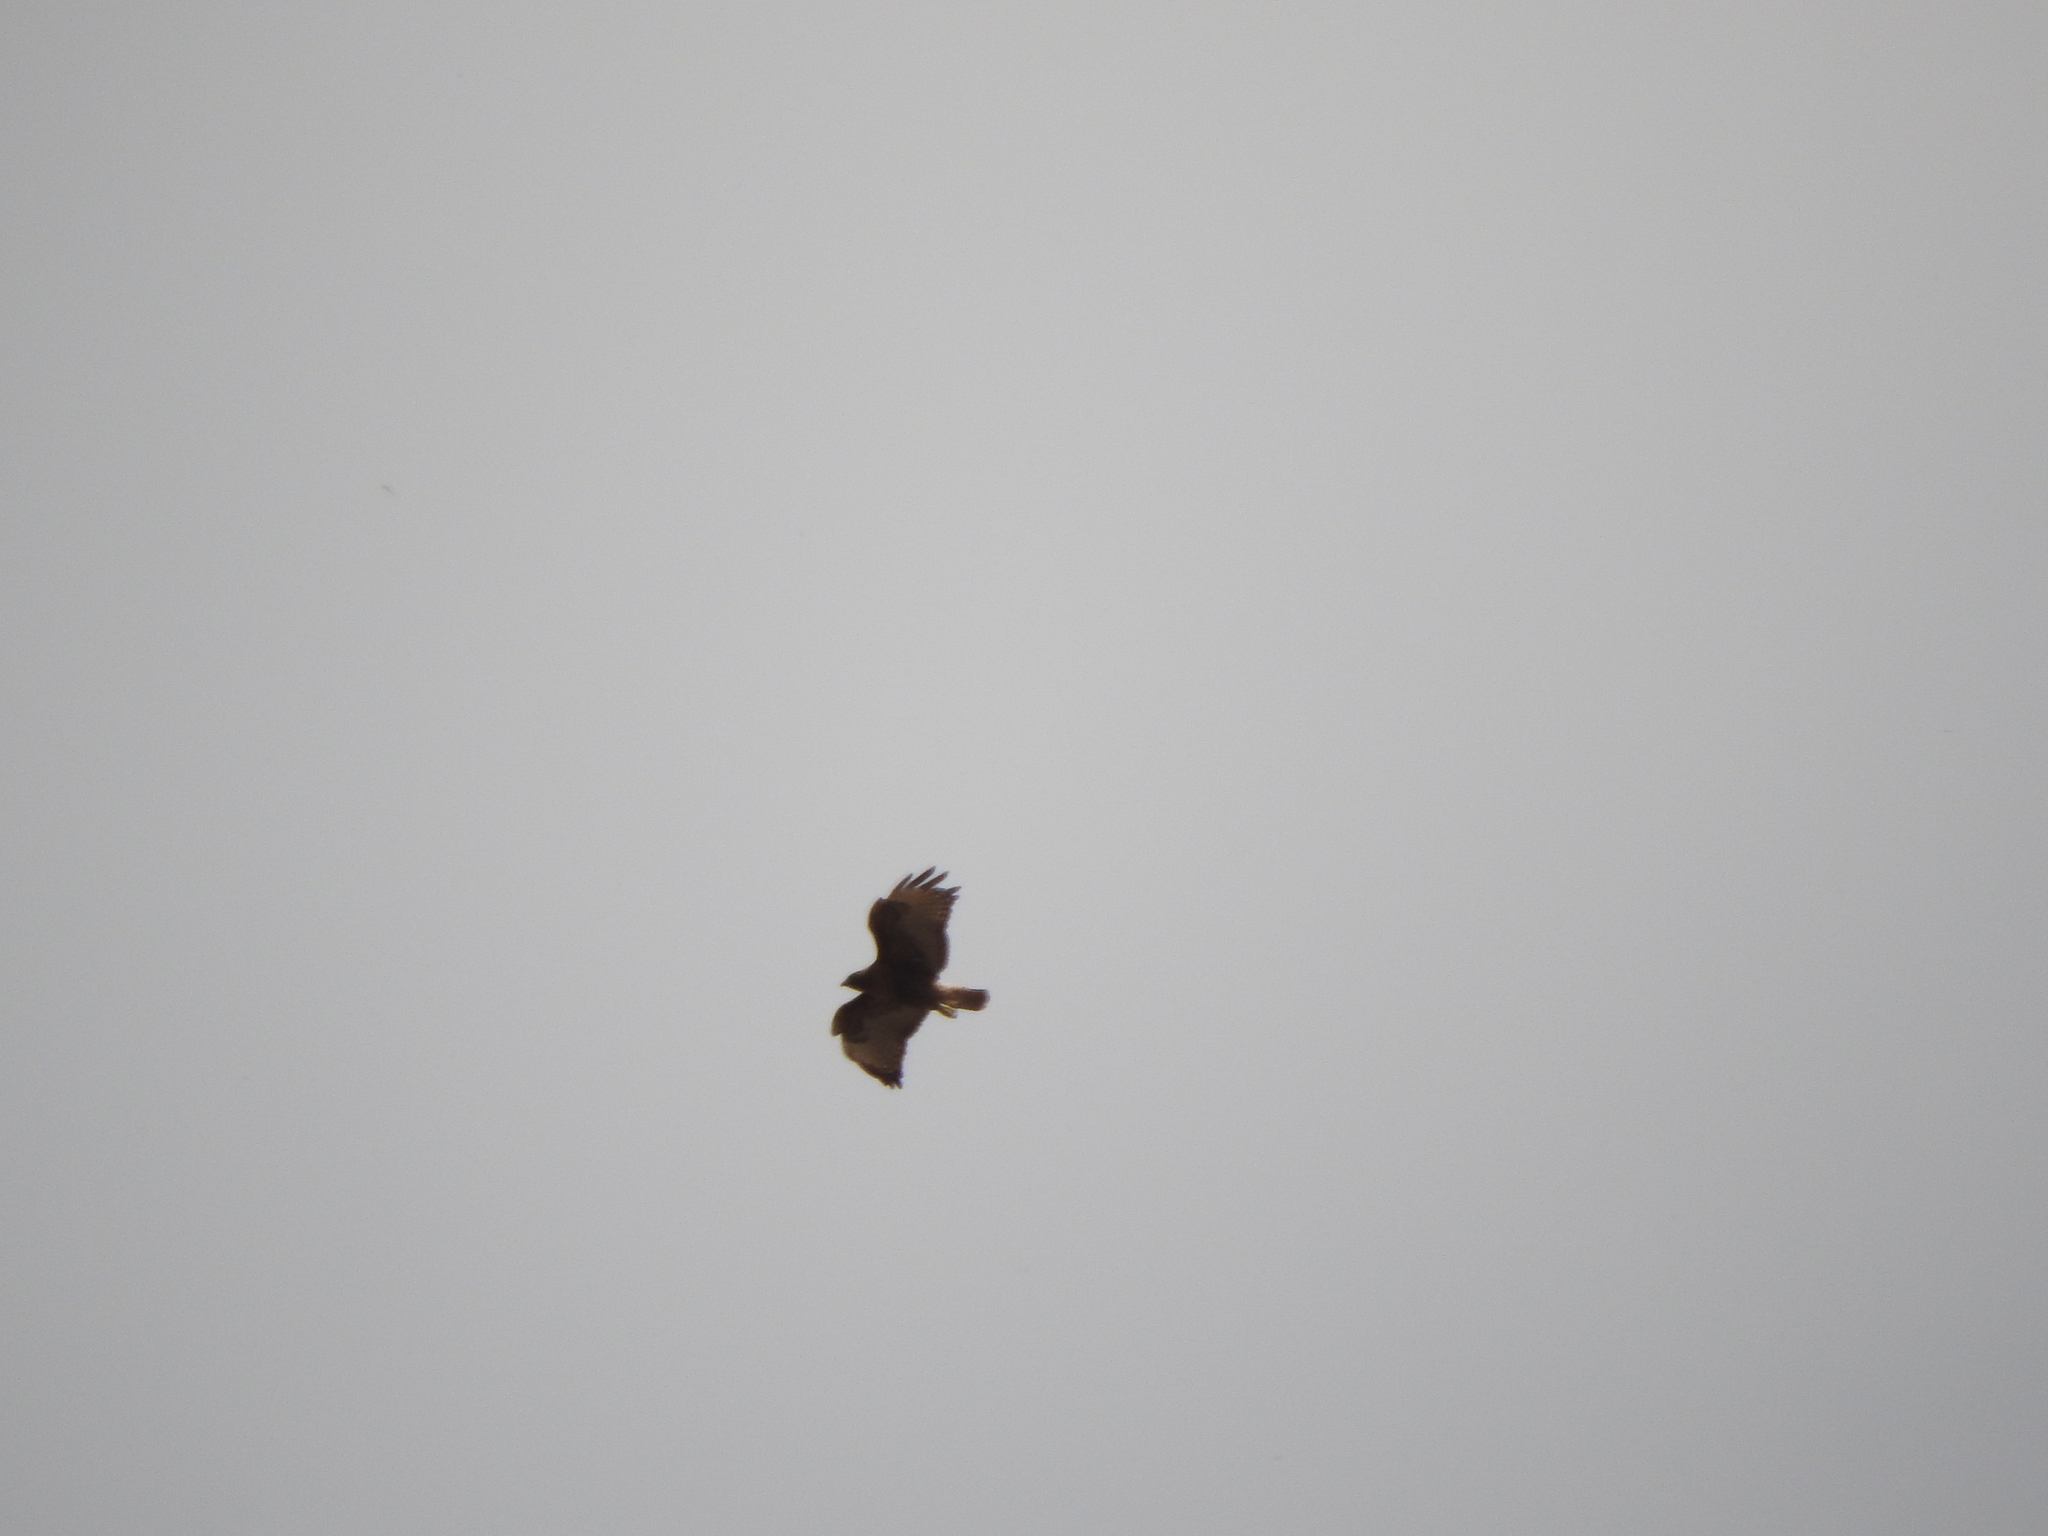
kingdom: Animalia
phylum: Chordata
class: Aves
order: Accipitriformes
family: Accipitridae
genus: Buteo
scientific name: Buteo jamaicensis
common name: Red-tailed hawk
